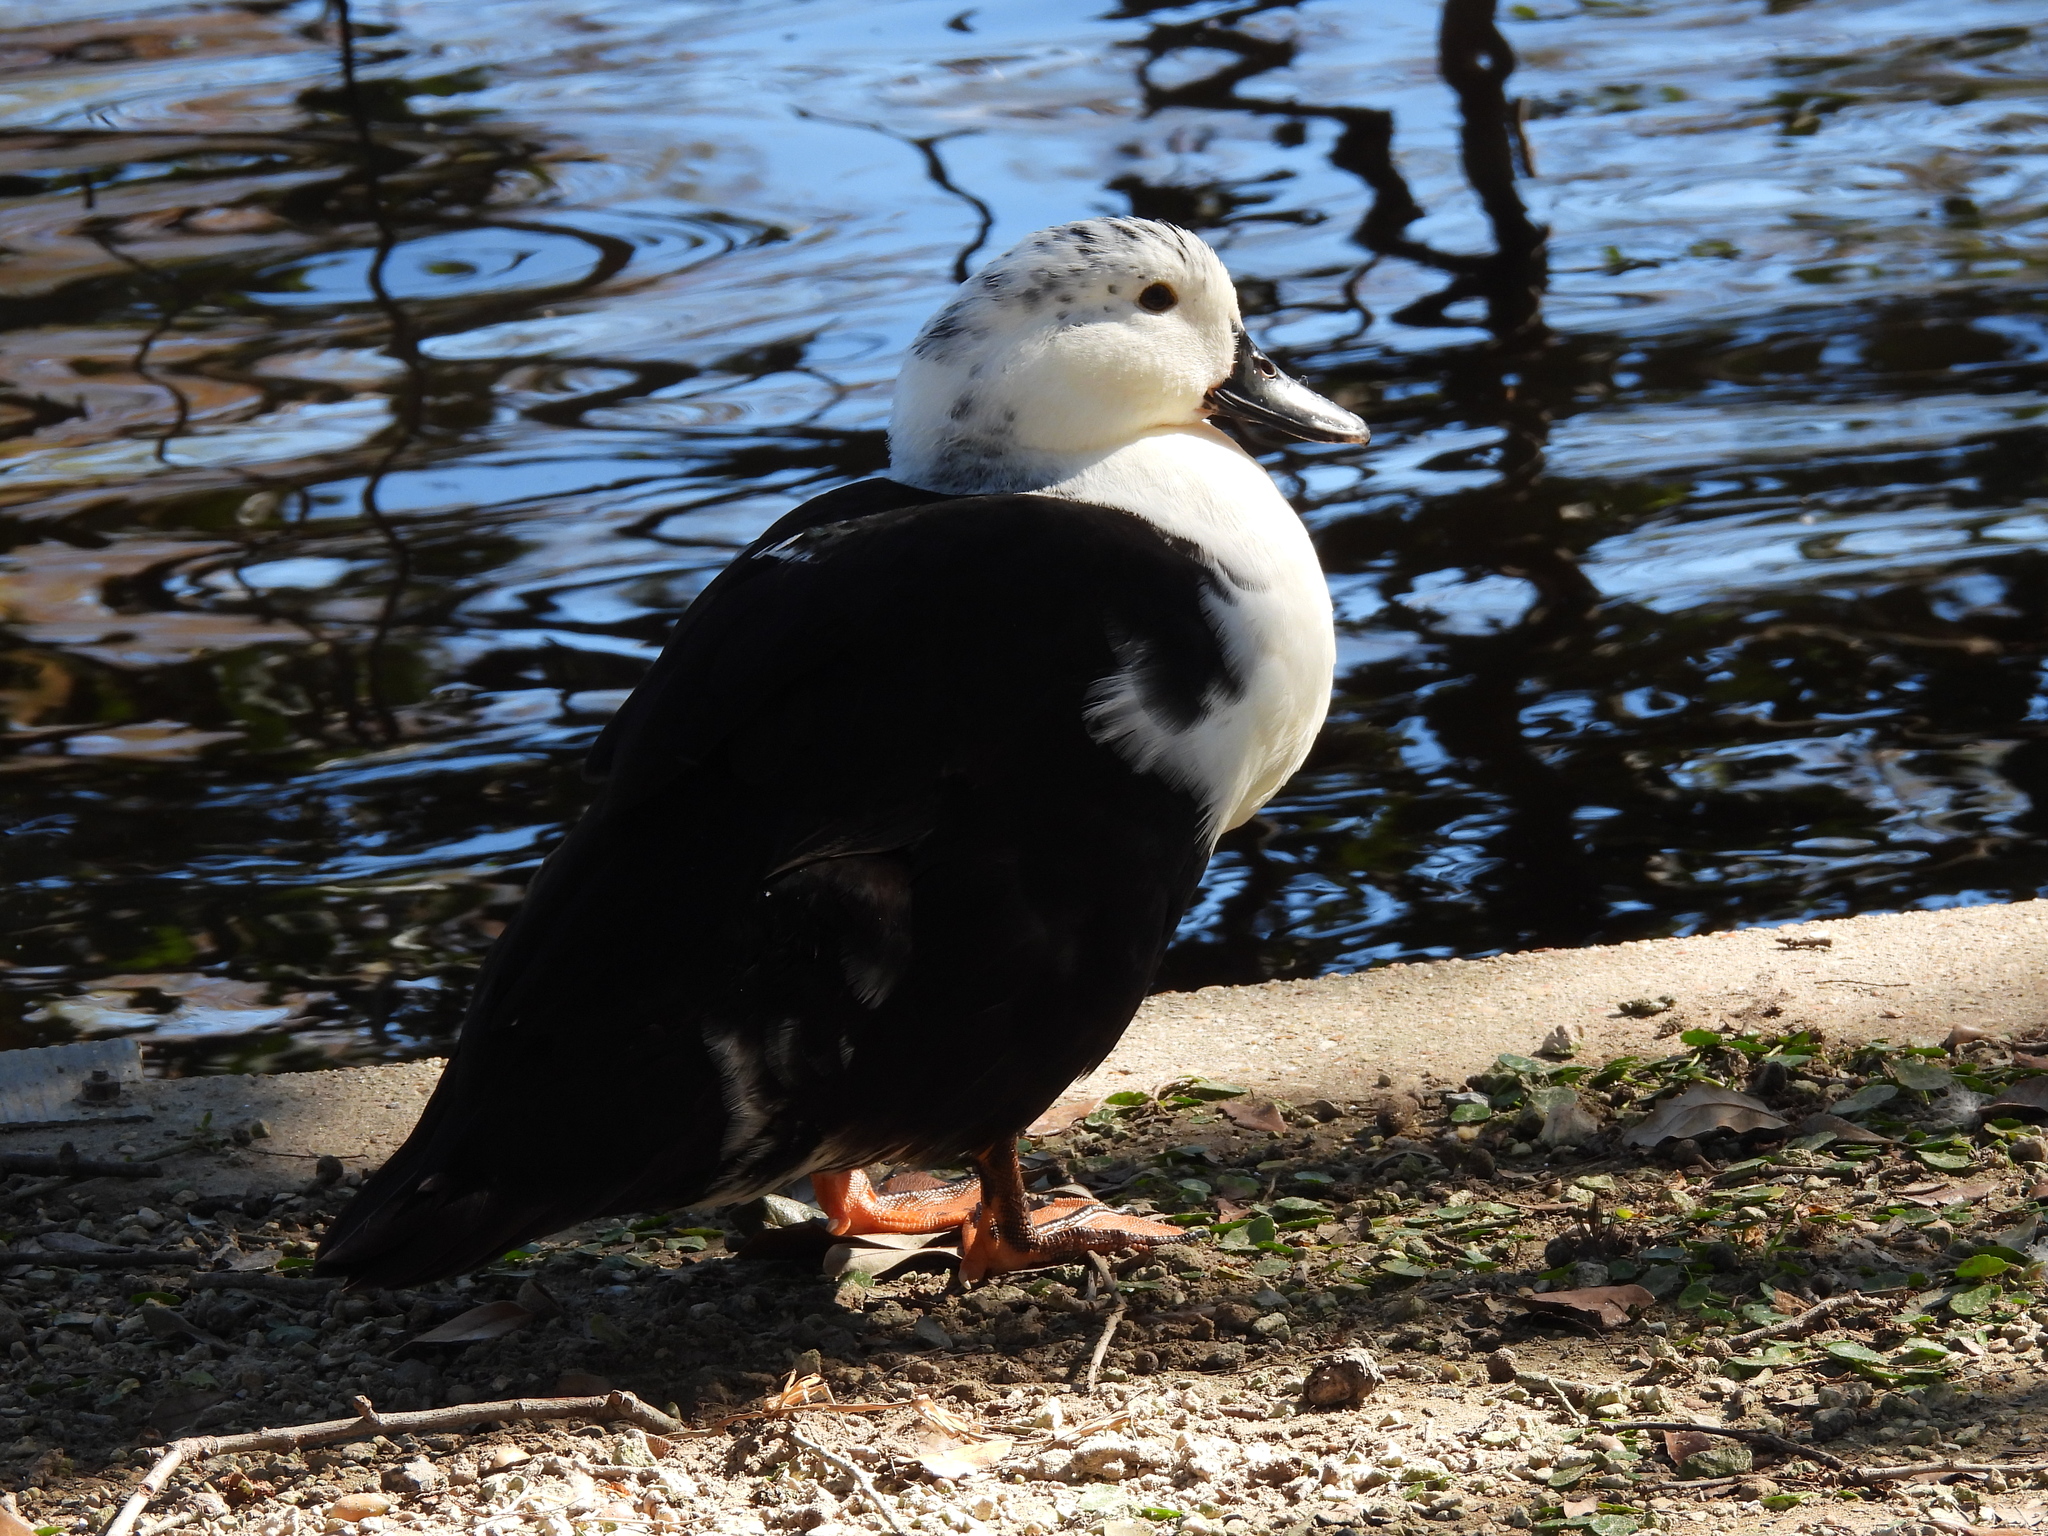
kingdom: Animalia
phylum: Chordata
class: Aves
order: Anseriformes
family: Anatidae
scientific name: Anatidae
